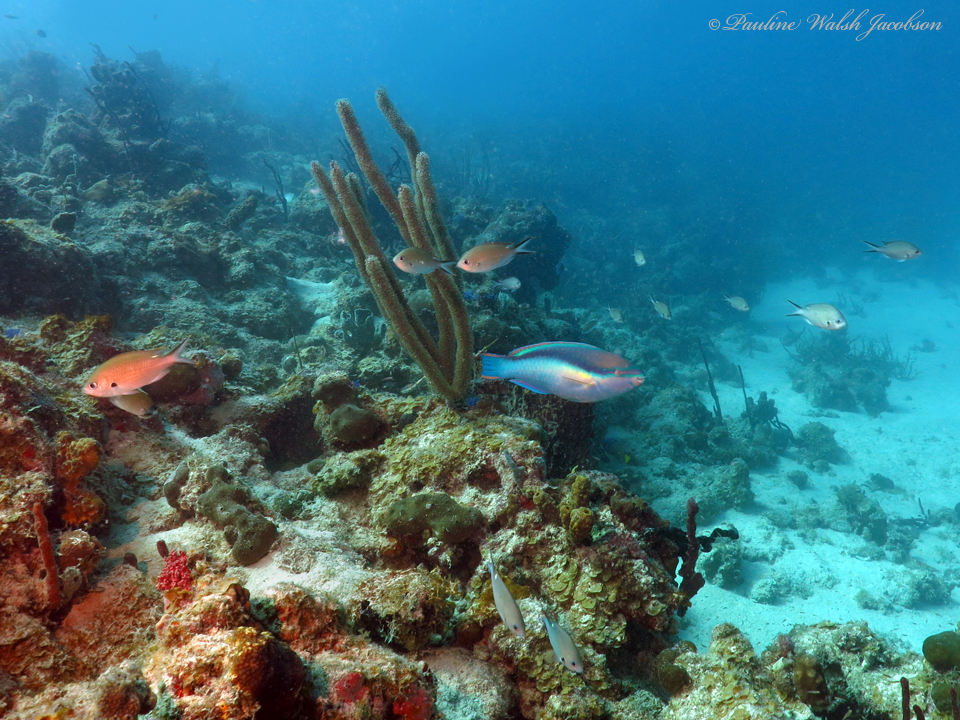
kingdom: Animalia
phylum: Chordata
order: Perciformes
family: Scaridae
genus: Scarus
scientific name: Scarus taeniopterus
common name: Princess parrotfish
